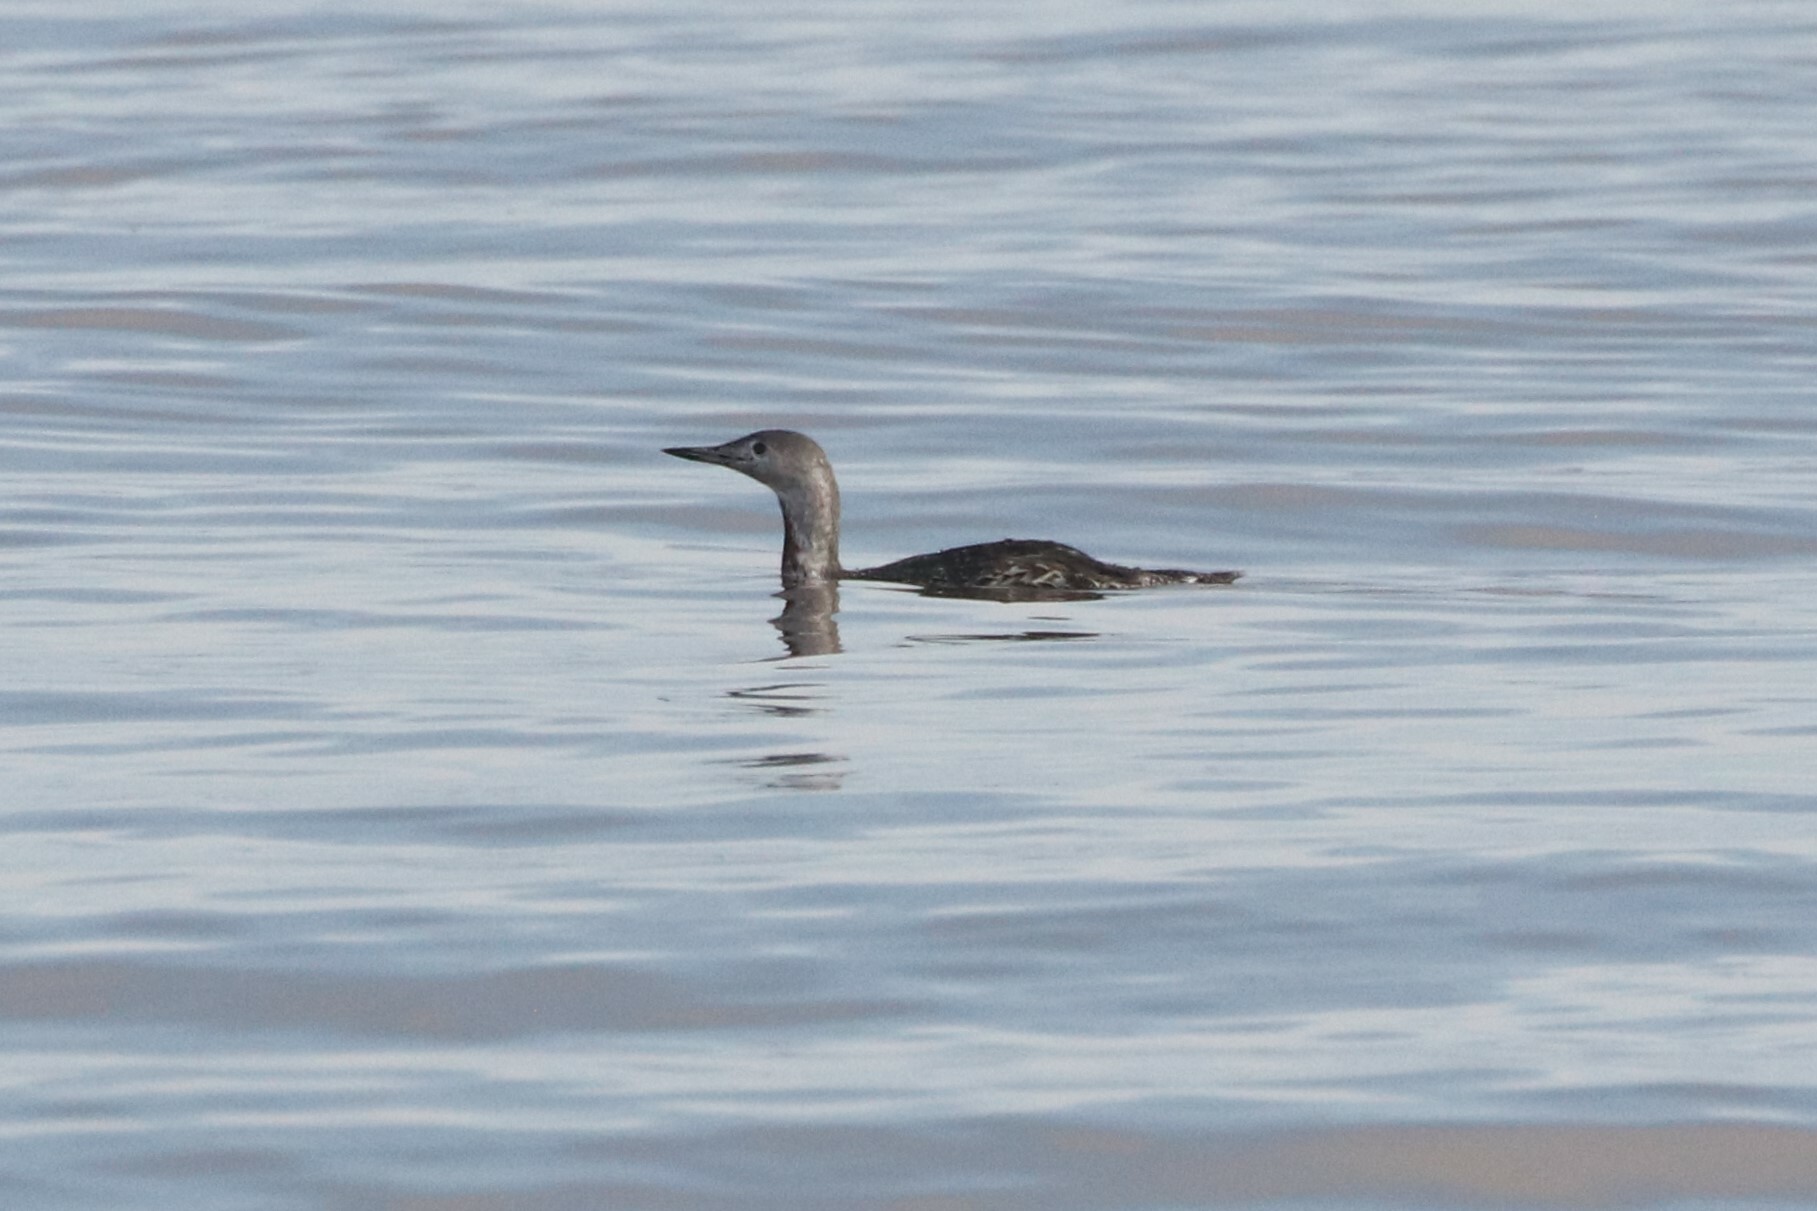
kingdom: Animalia
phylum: Chordata
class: Aves
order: Gaviiformes
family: Gaviidae
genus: Gavia
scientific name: Gavia stellata
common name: Red-throated loon
